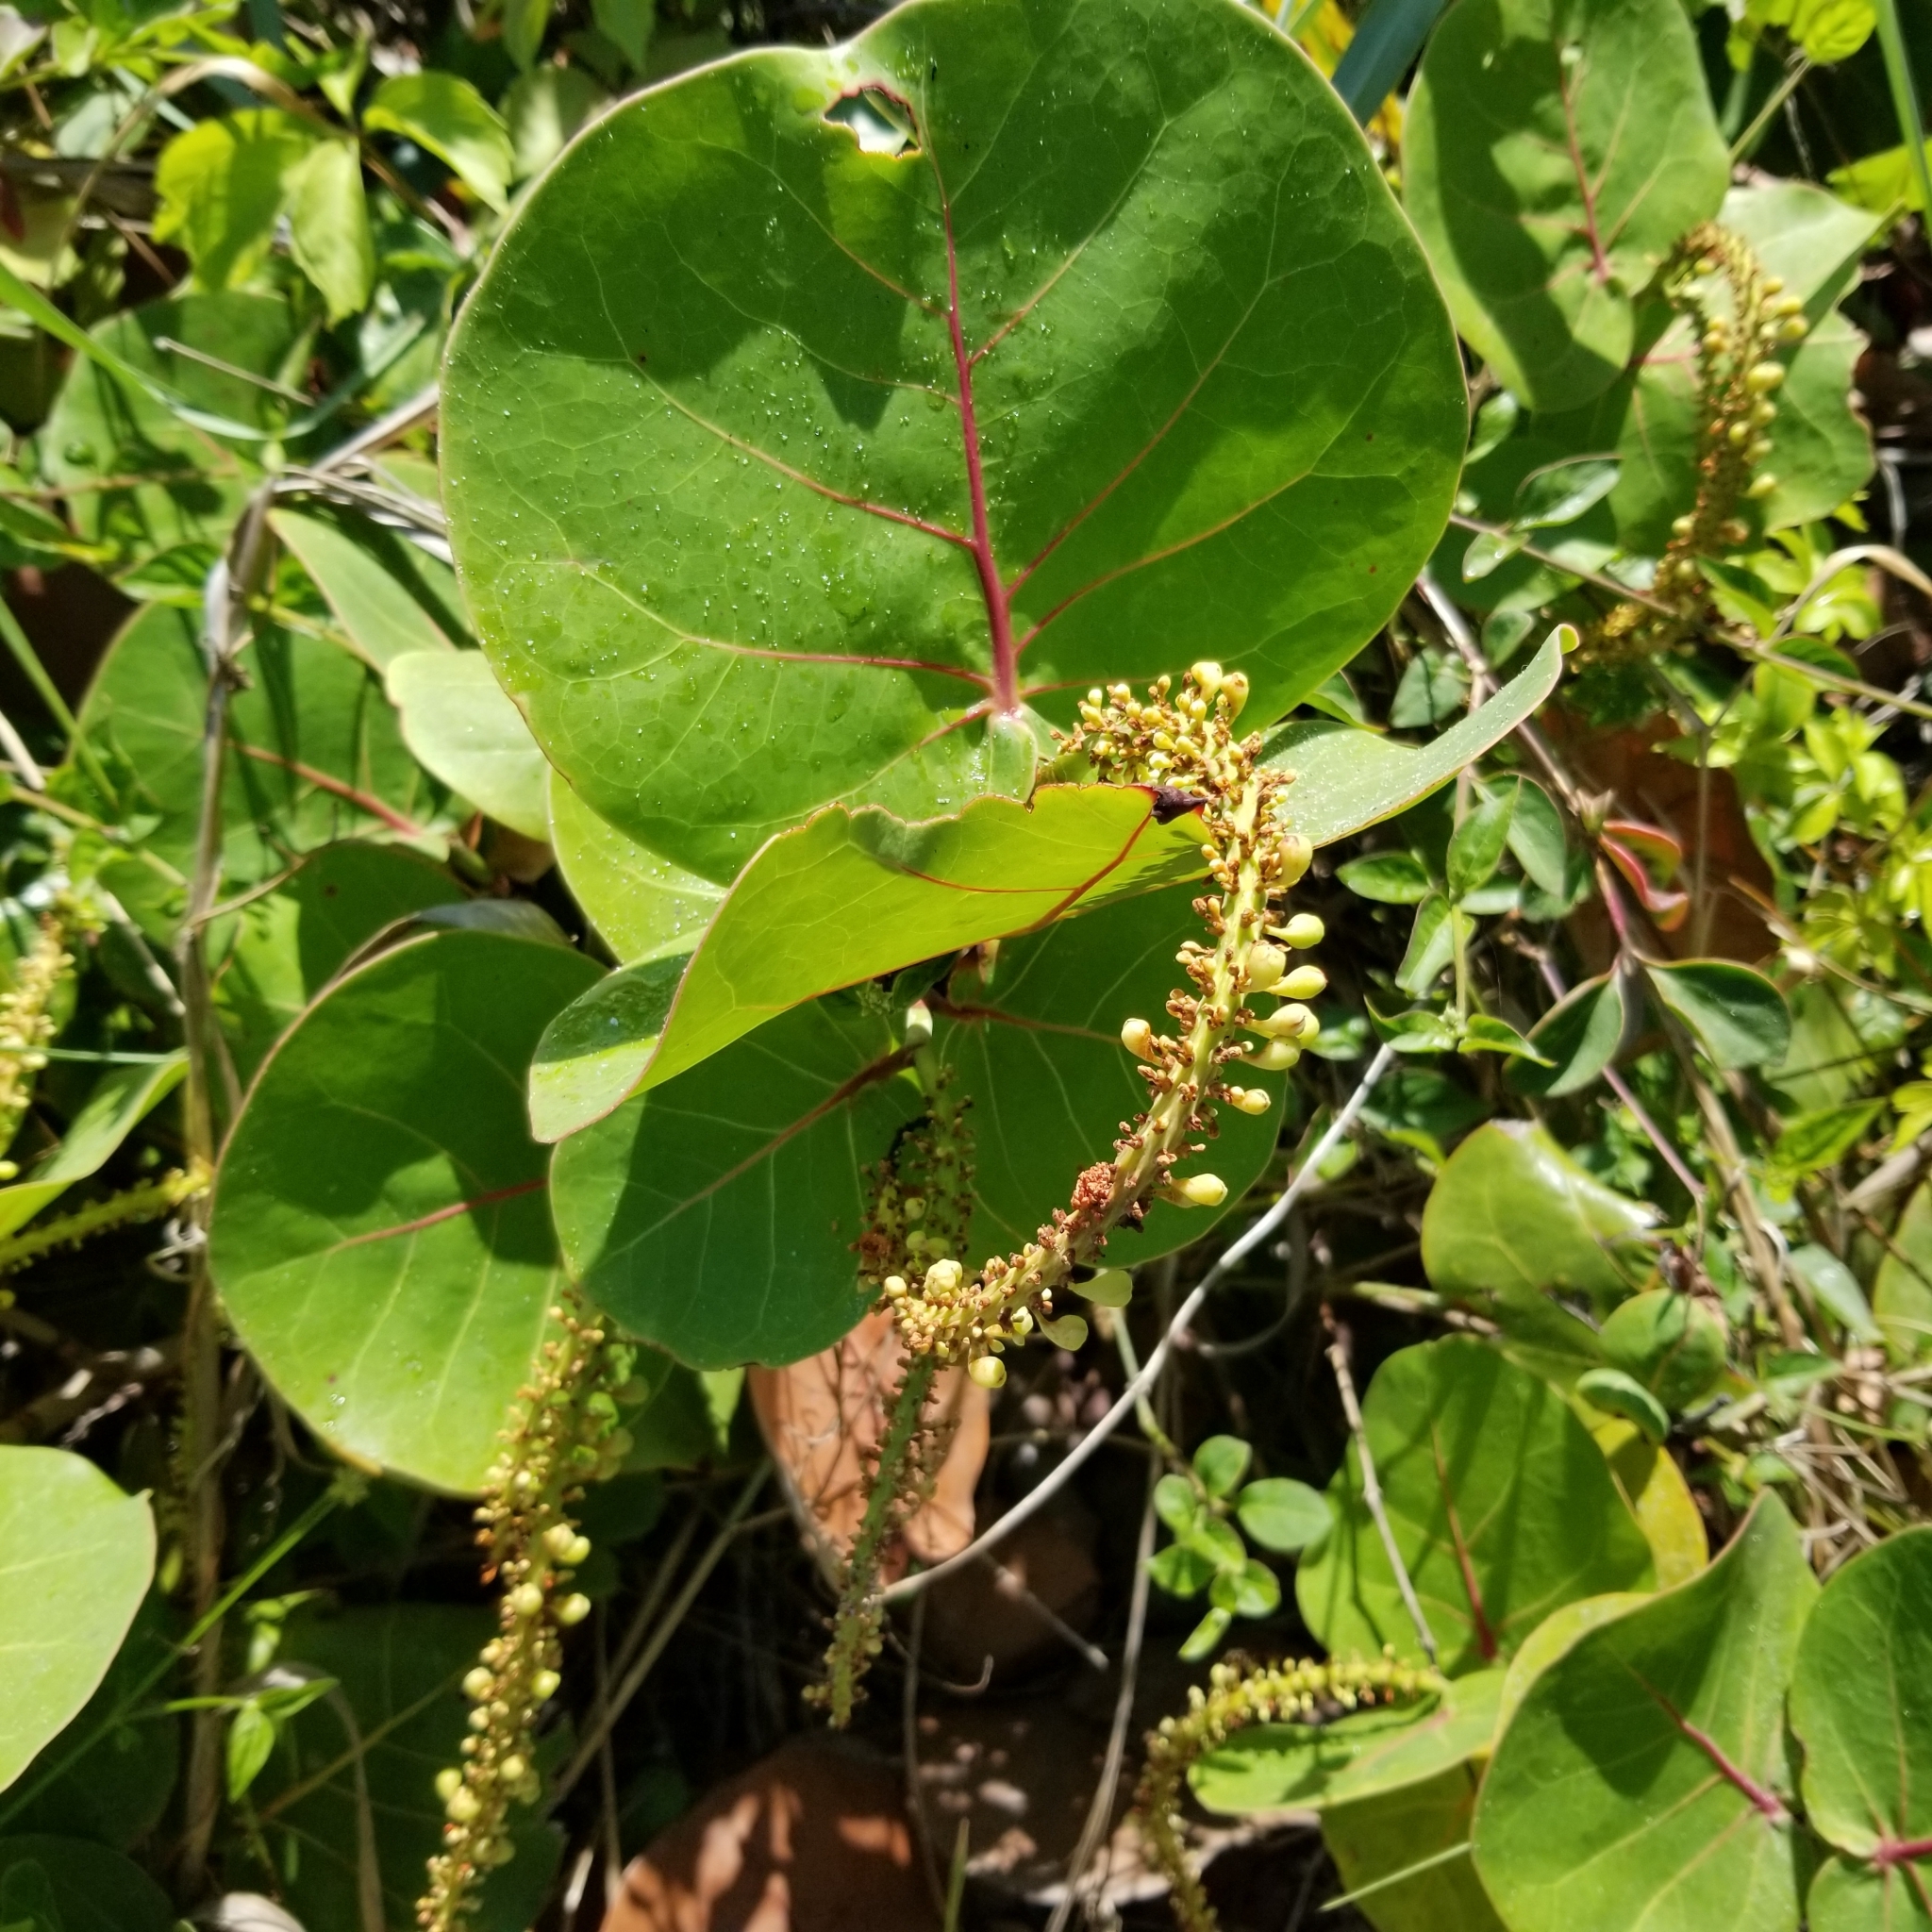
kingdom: Plantae
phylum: Tracheophyta
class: Magnoliopsida
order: Caryophyllales
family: Polygonaceae
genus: Coccoloba
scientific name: Coccoloba uvifera
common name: Seagrape
